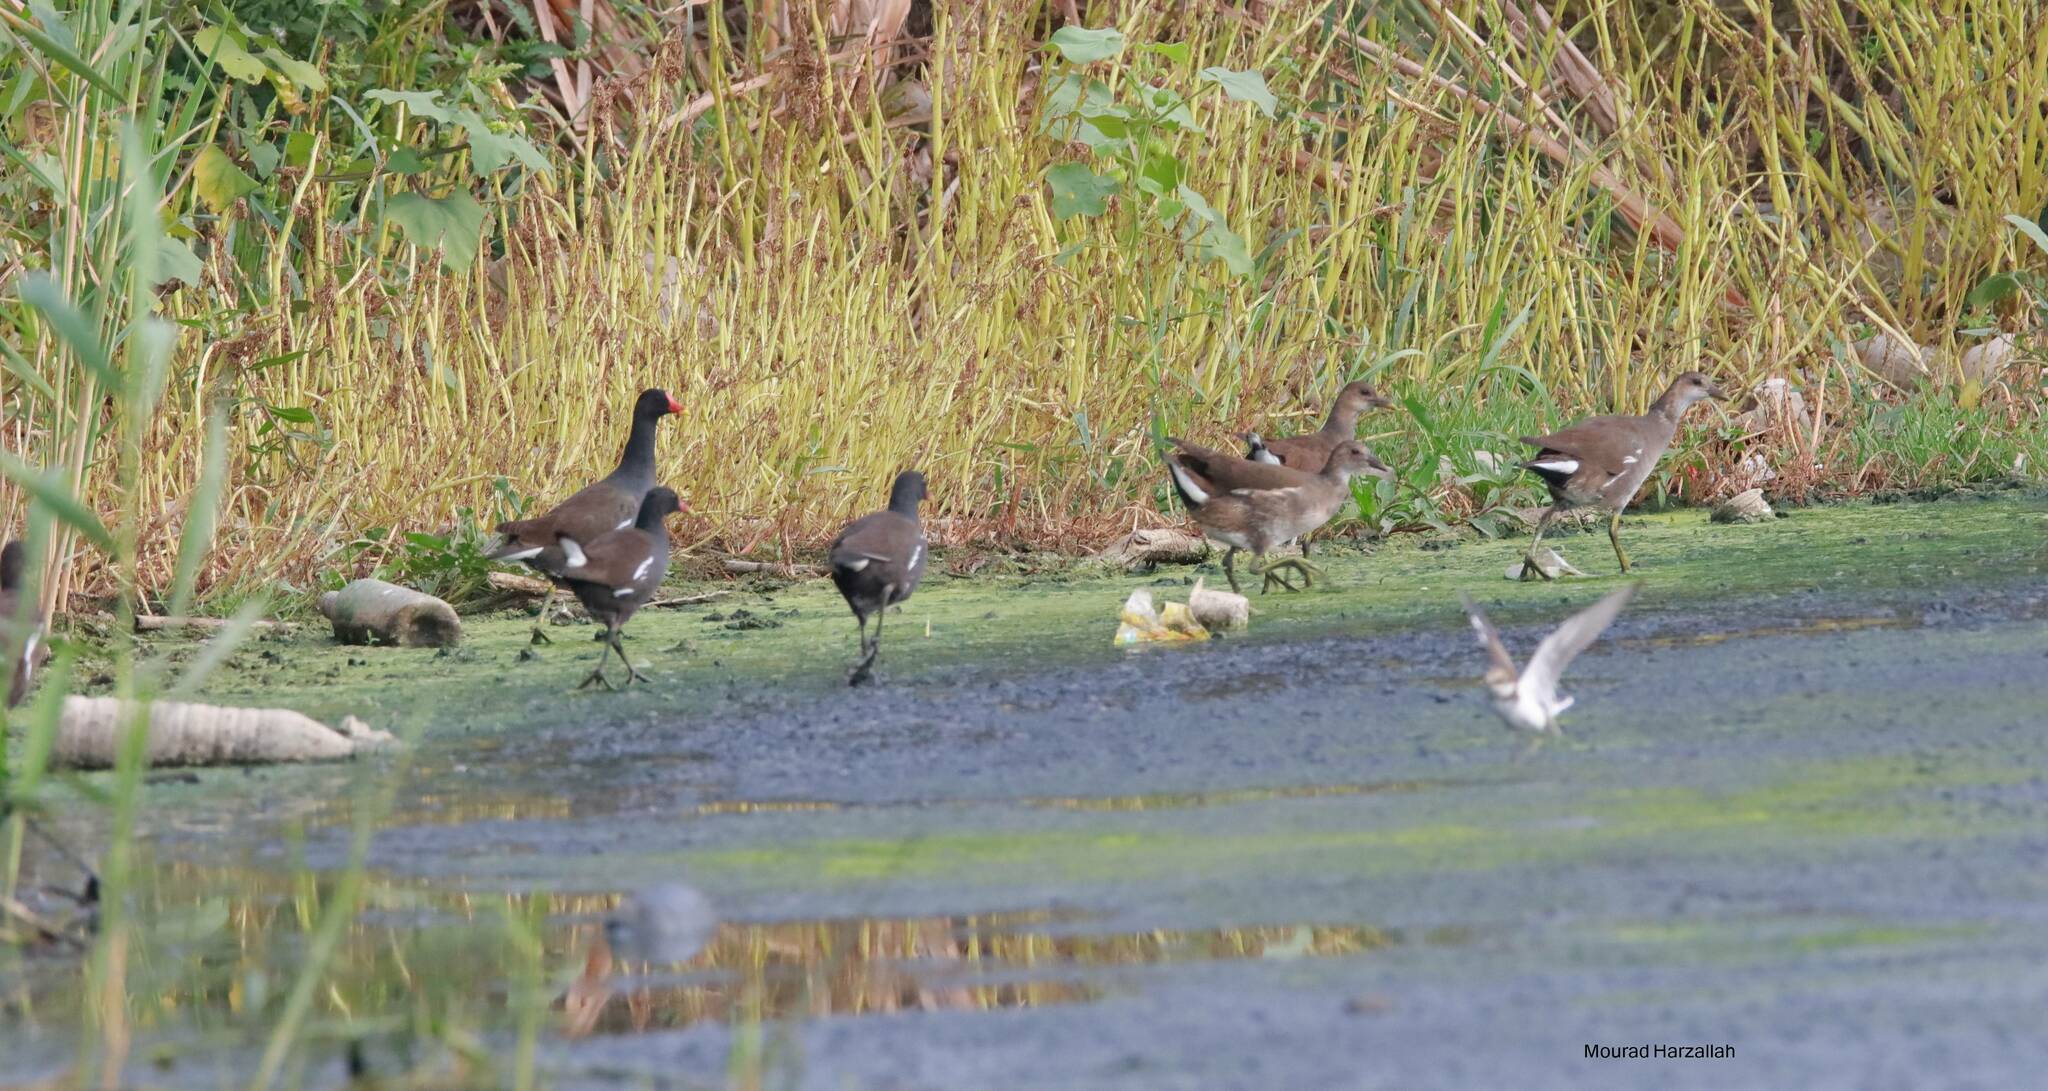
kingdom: Animalia
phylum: Chordata
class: Aves
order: Gruiformes
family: Rallidae
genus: Gallinula
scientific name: Gallinula chloropus
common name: Common moorhen
